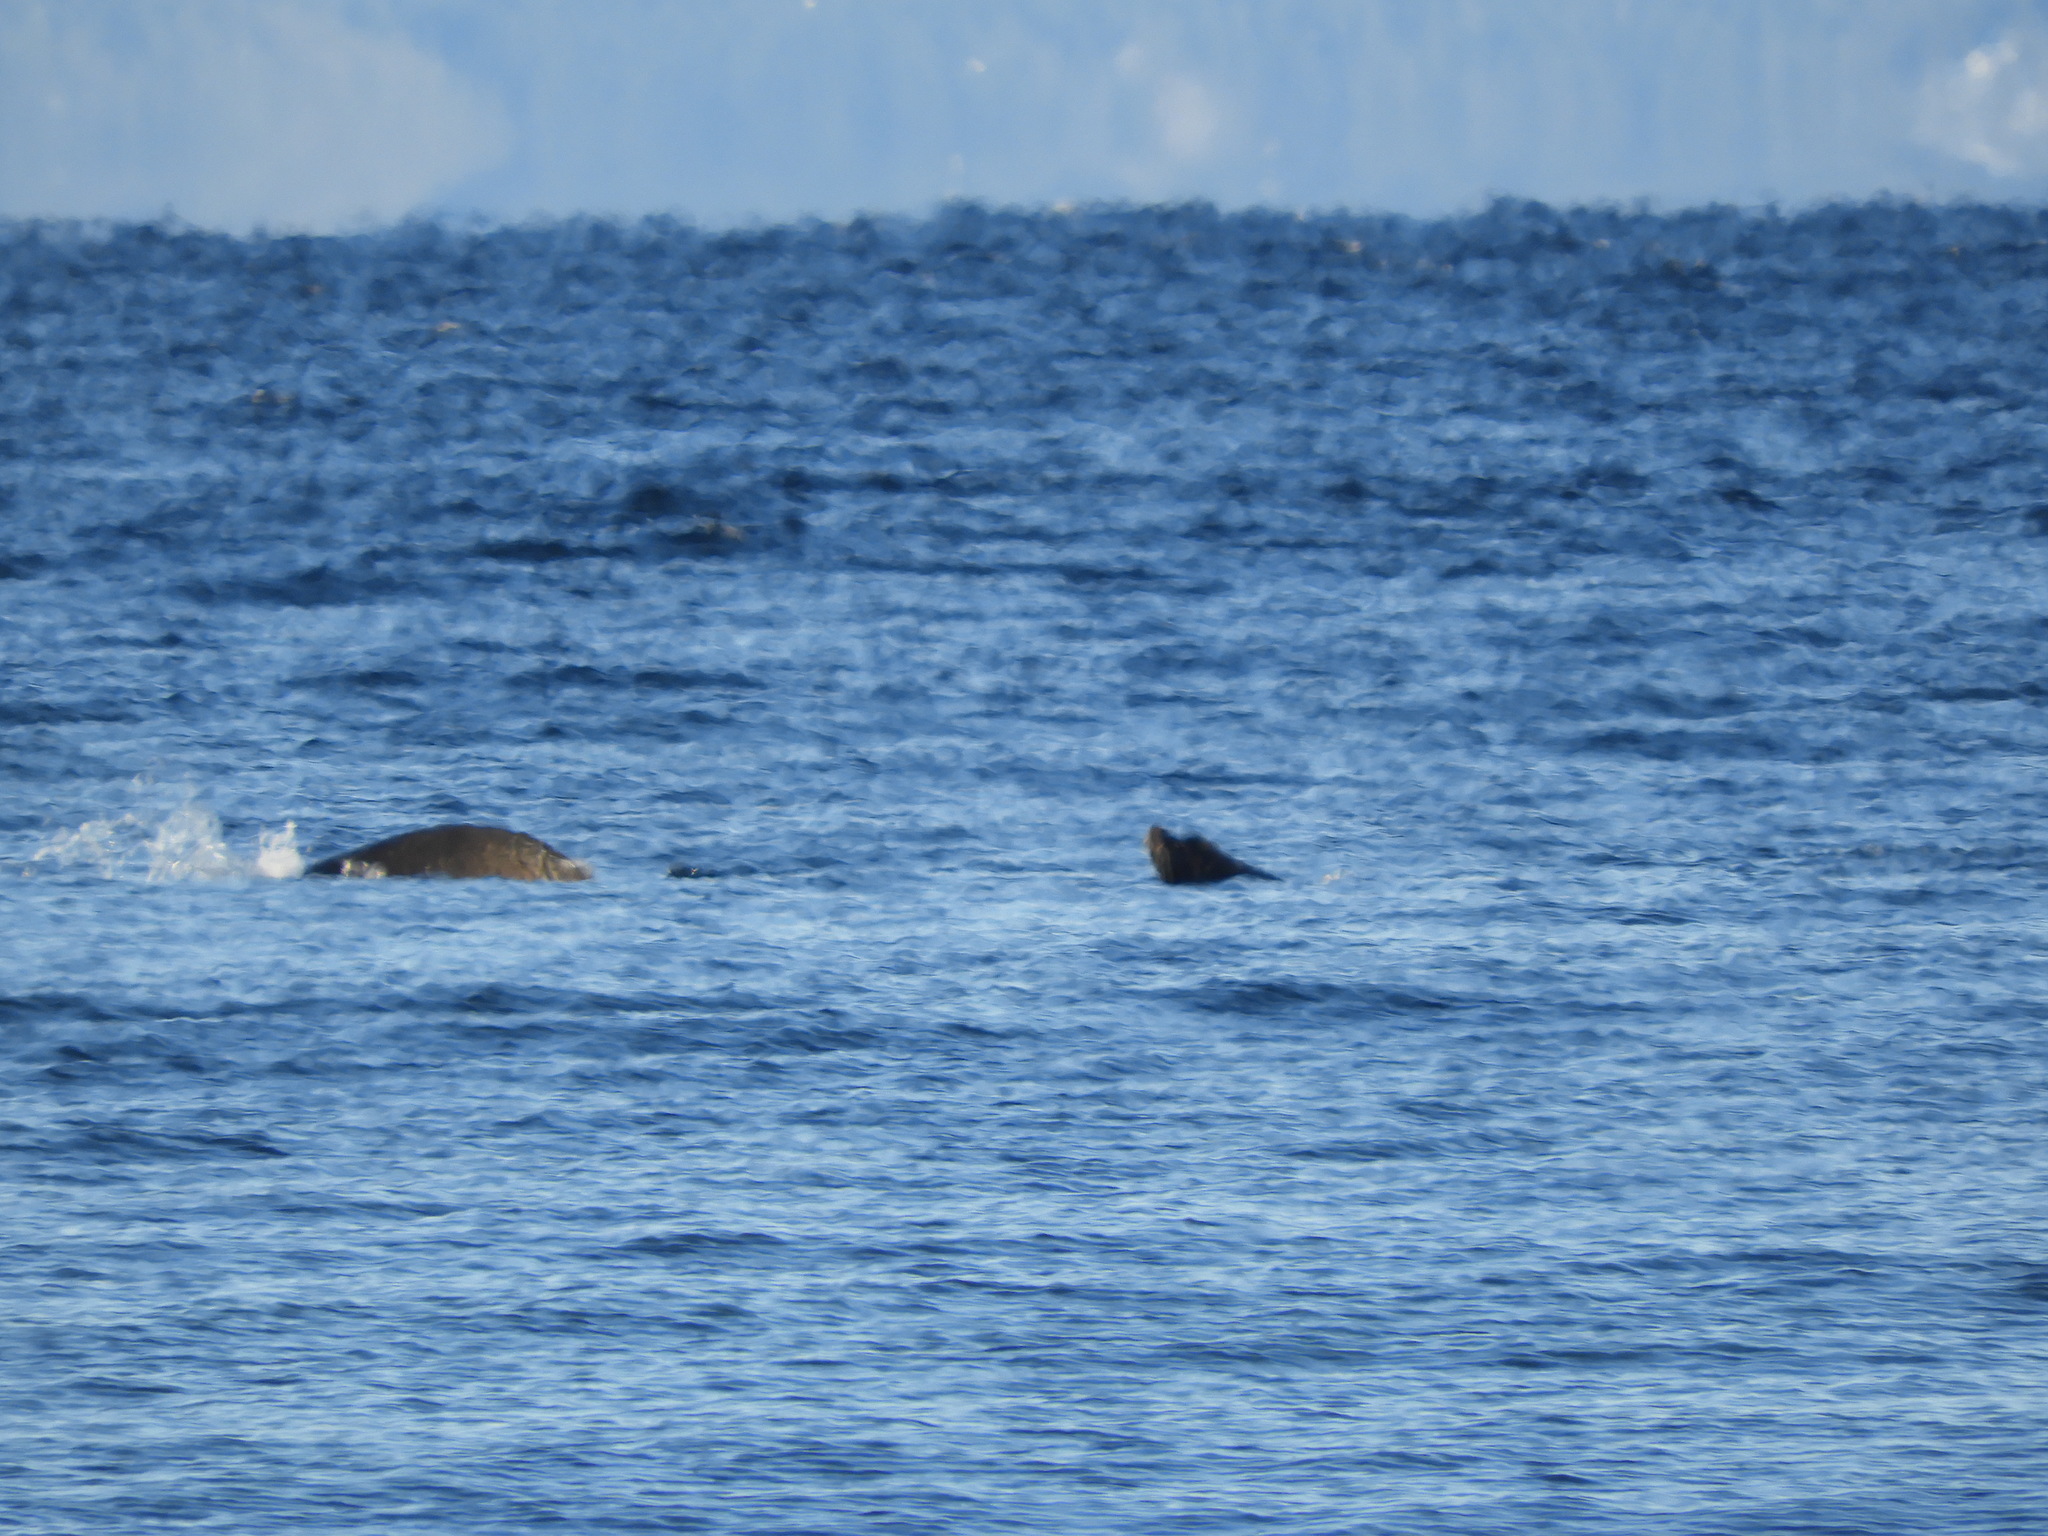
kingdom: Animalia
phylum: Chordata
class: Mammalia
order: Carnivora
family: Otariidae
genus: Zalophus
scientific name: Zalophus californianus
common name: California sea lion
